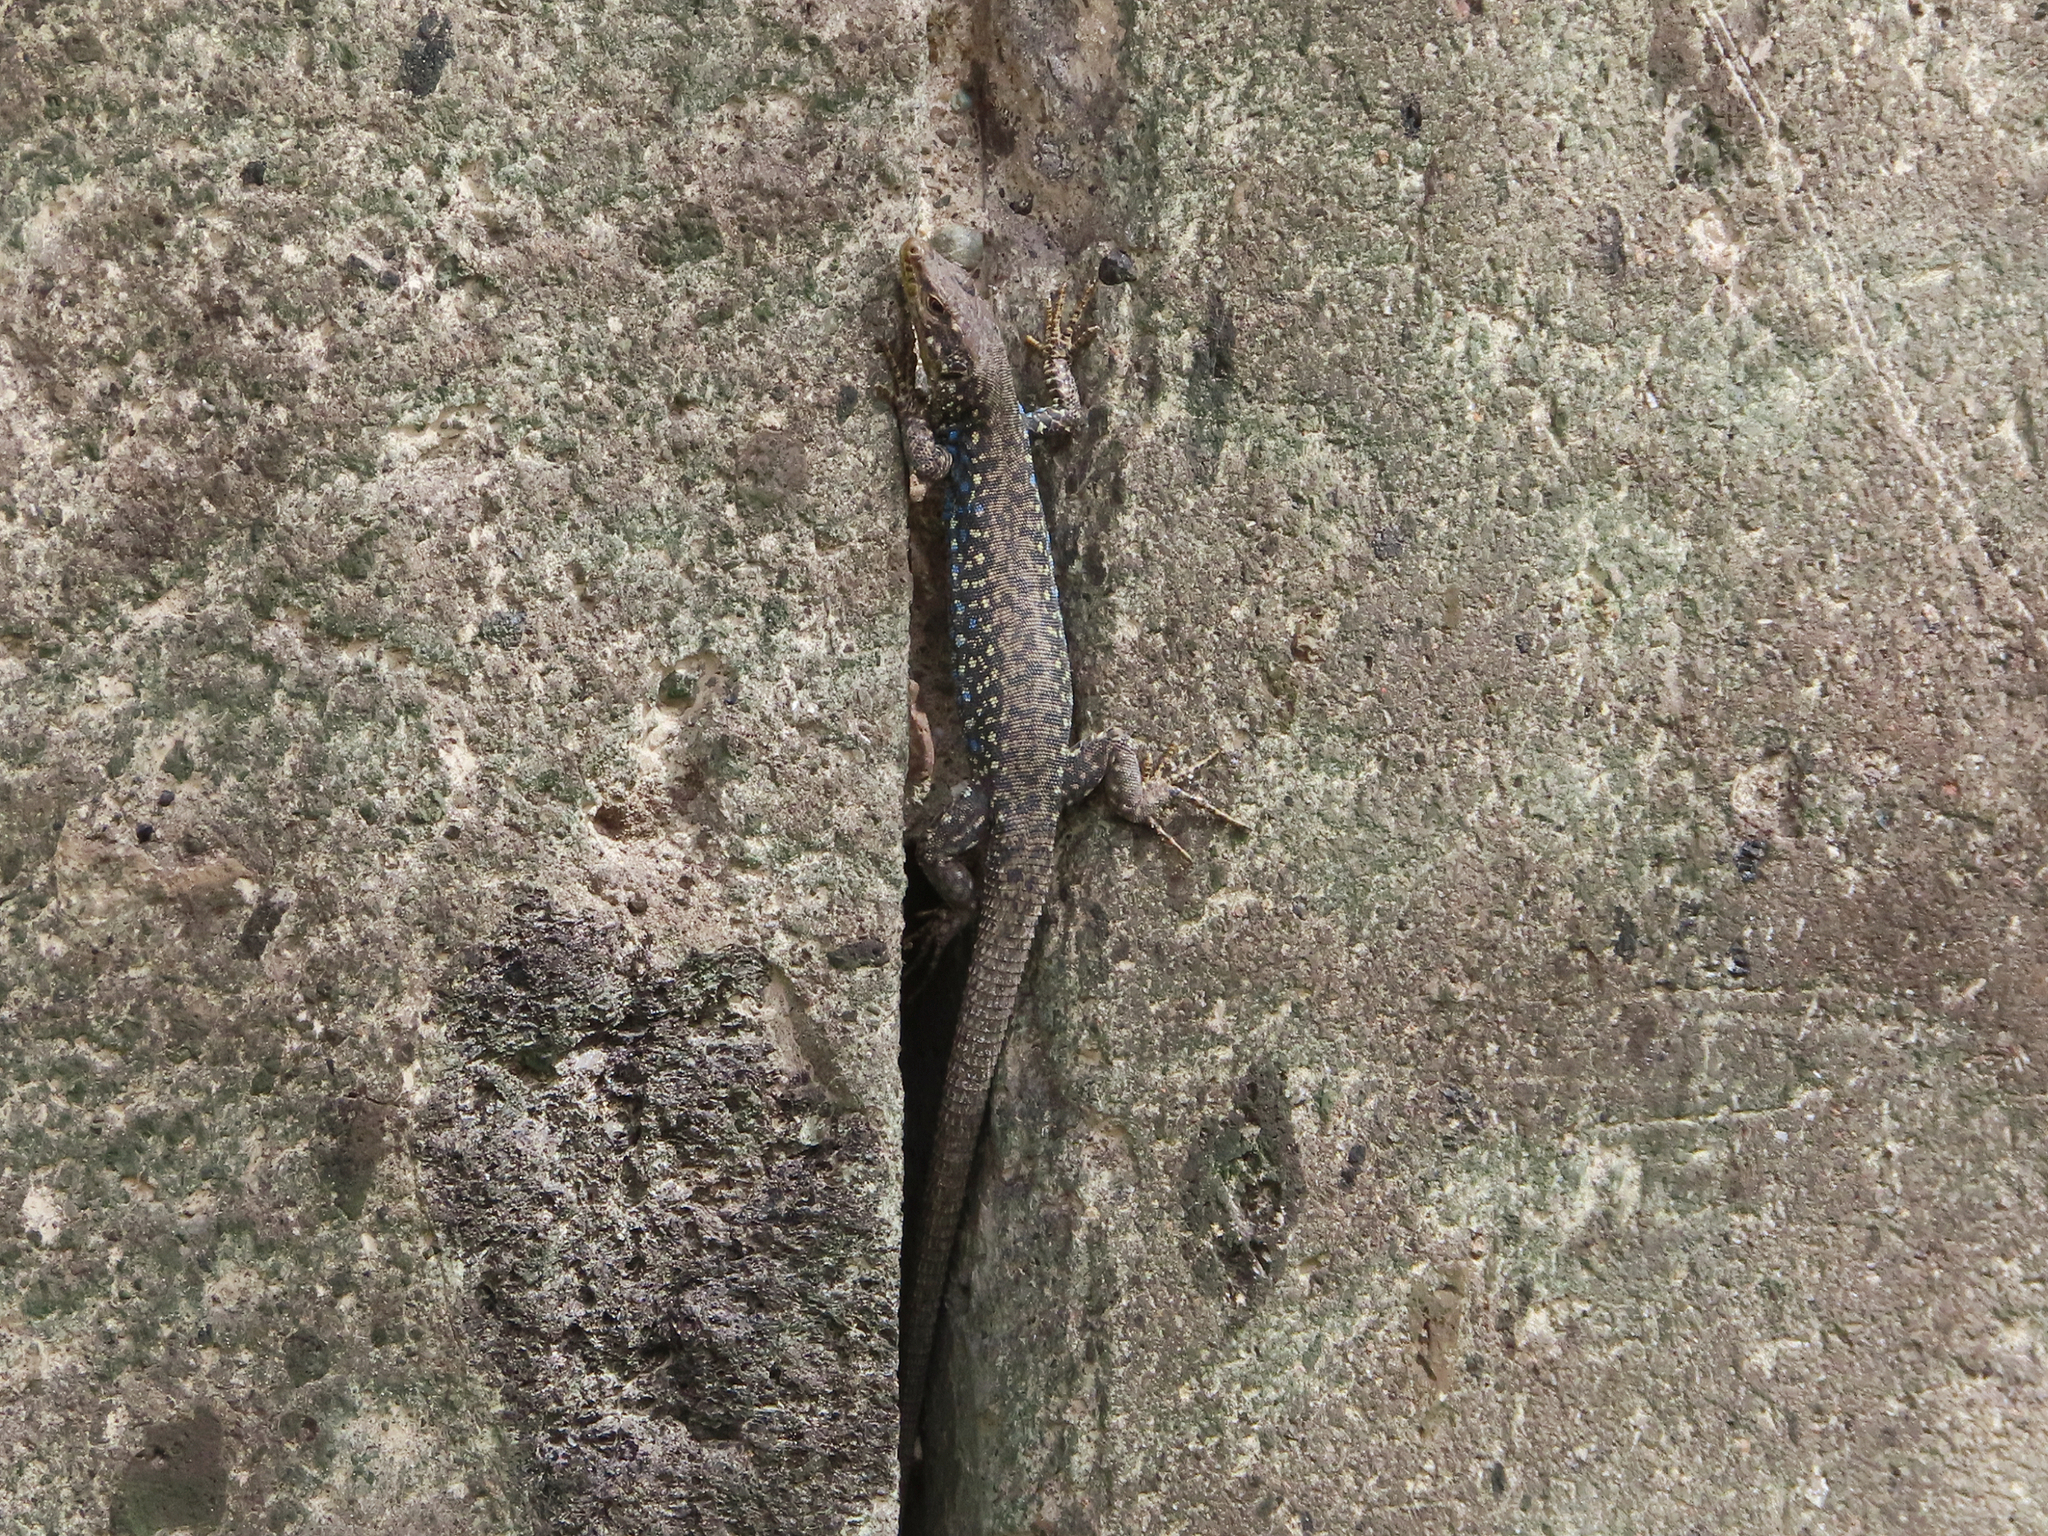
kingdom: Animalia
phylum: Chordata
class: Squamata
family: Lacertidae
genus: Darevskia
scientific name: Darevskia
